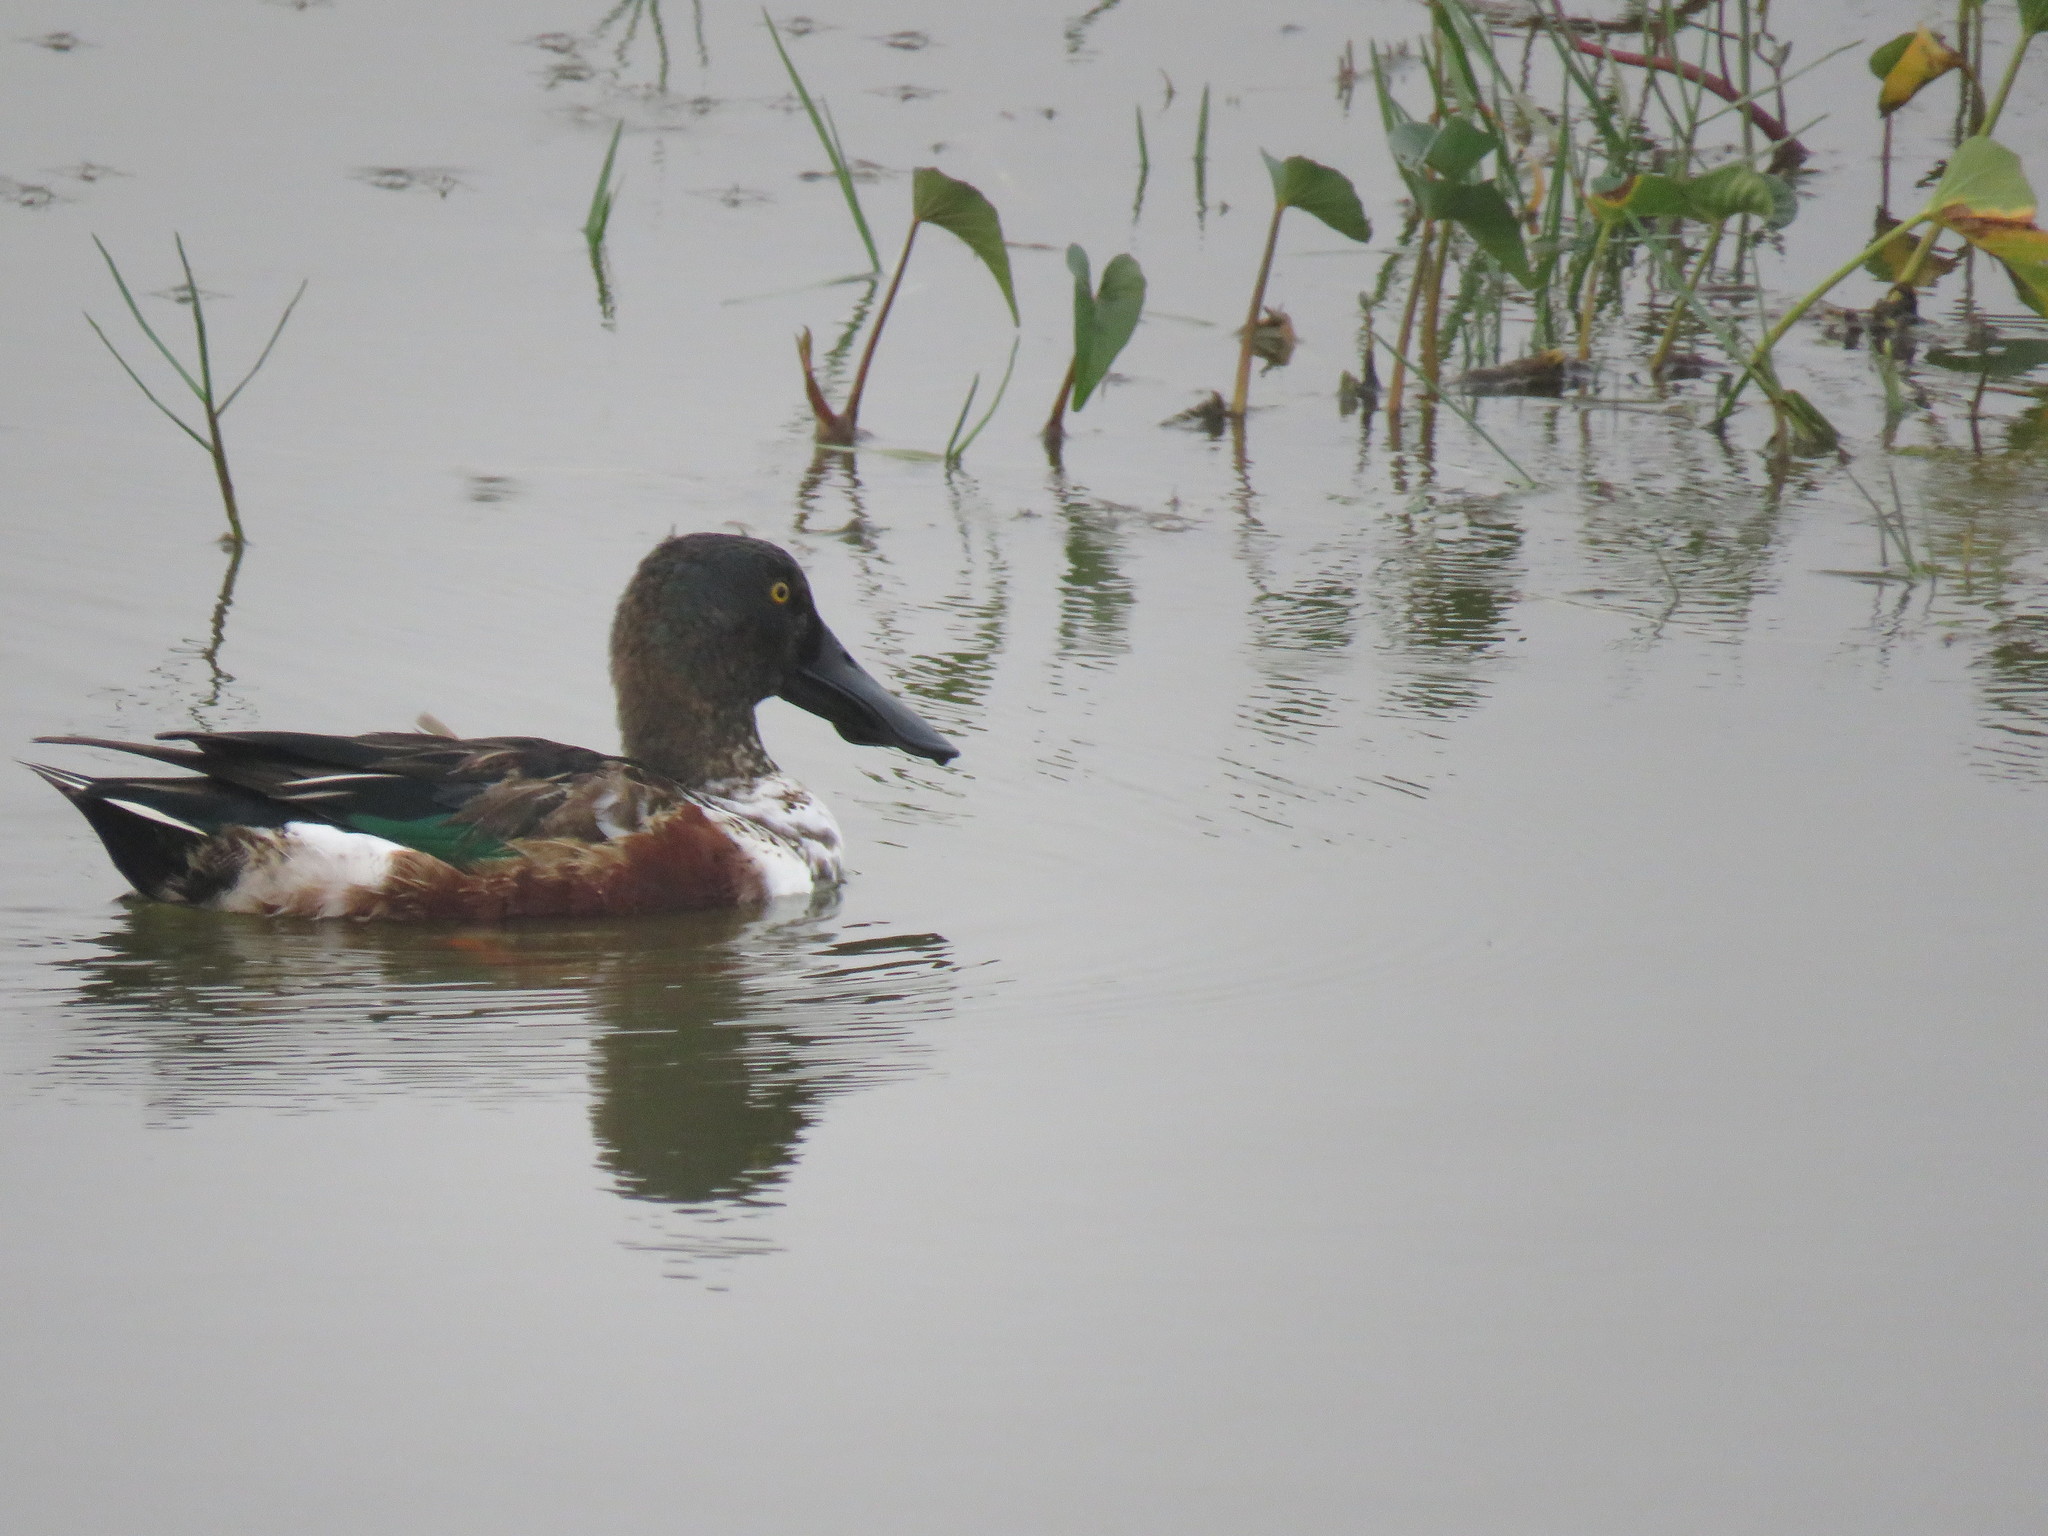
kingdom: Animalia
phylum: Chordata
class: Aves
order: Anseriformes
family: Anatidae
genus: Spatula
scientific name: Spatula clypeata
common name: Northern shoveler
